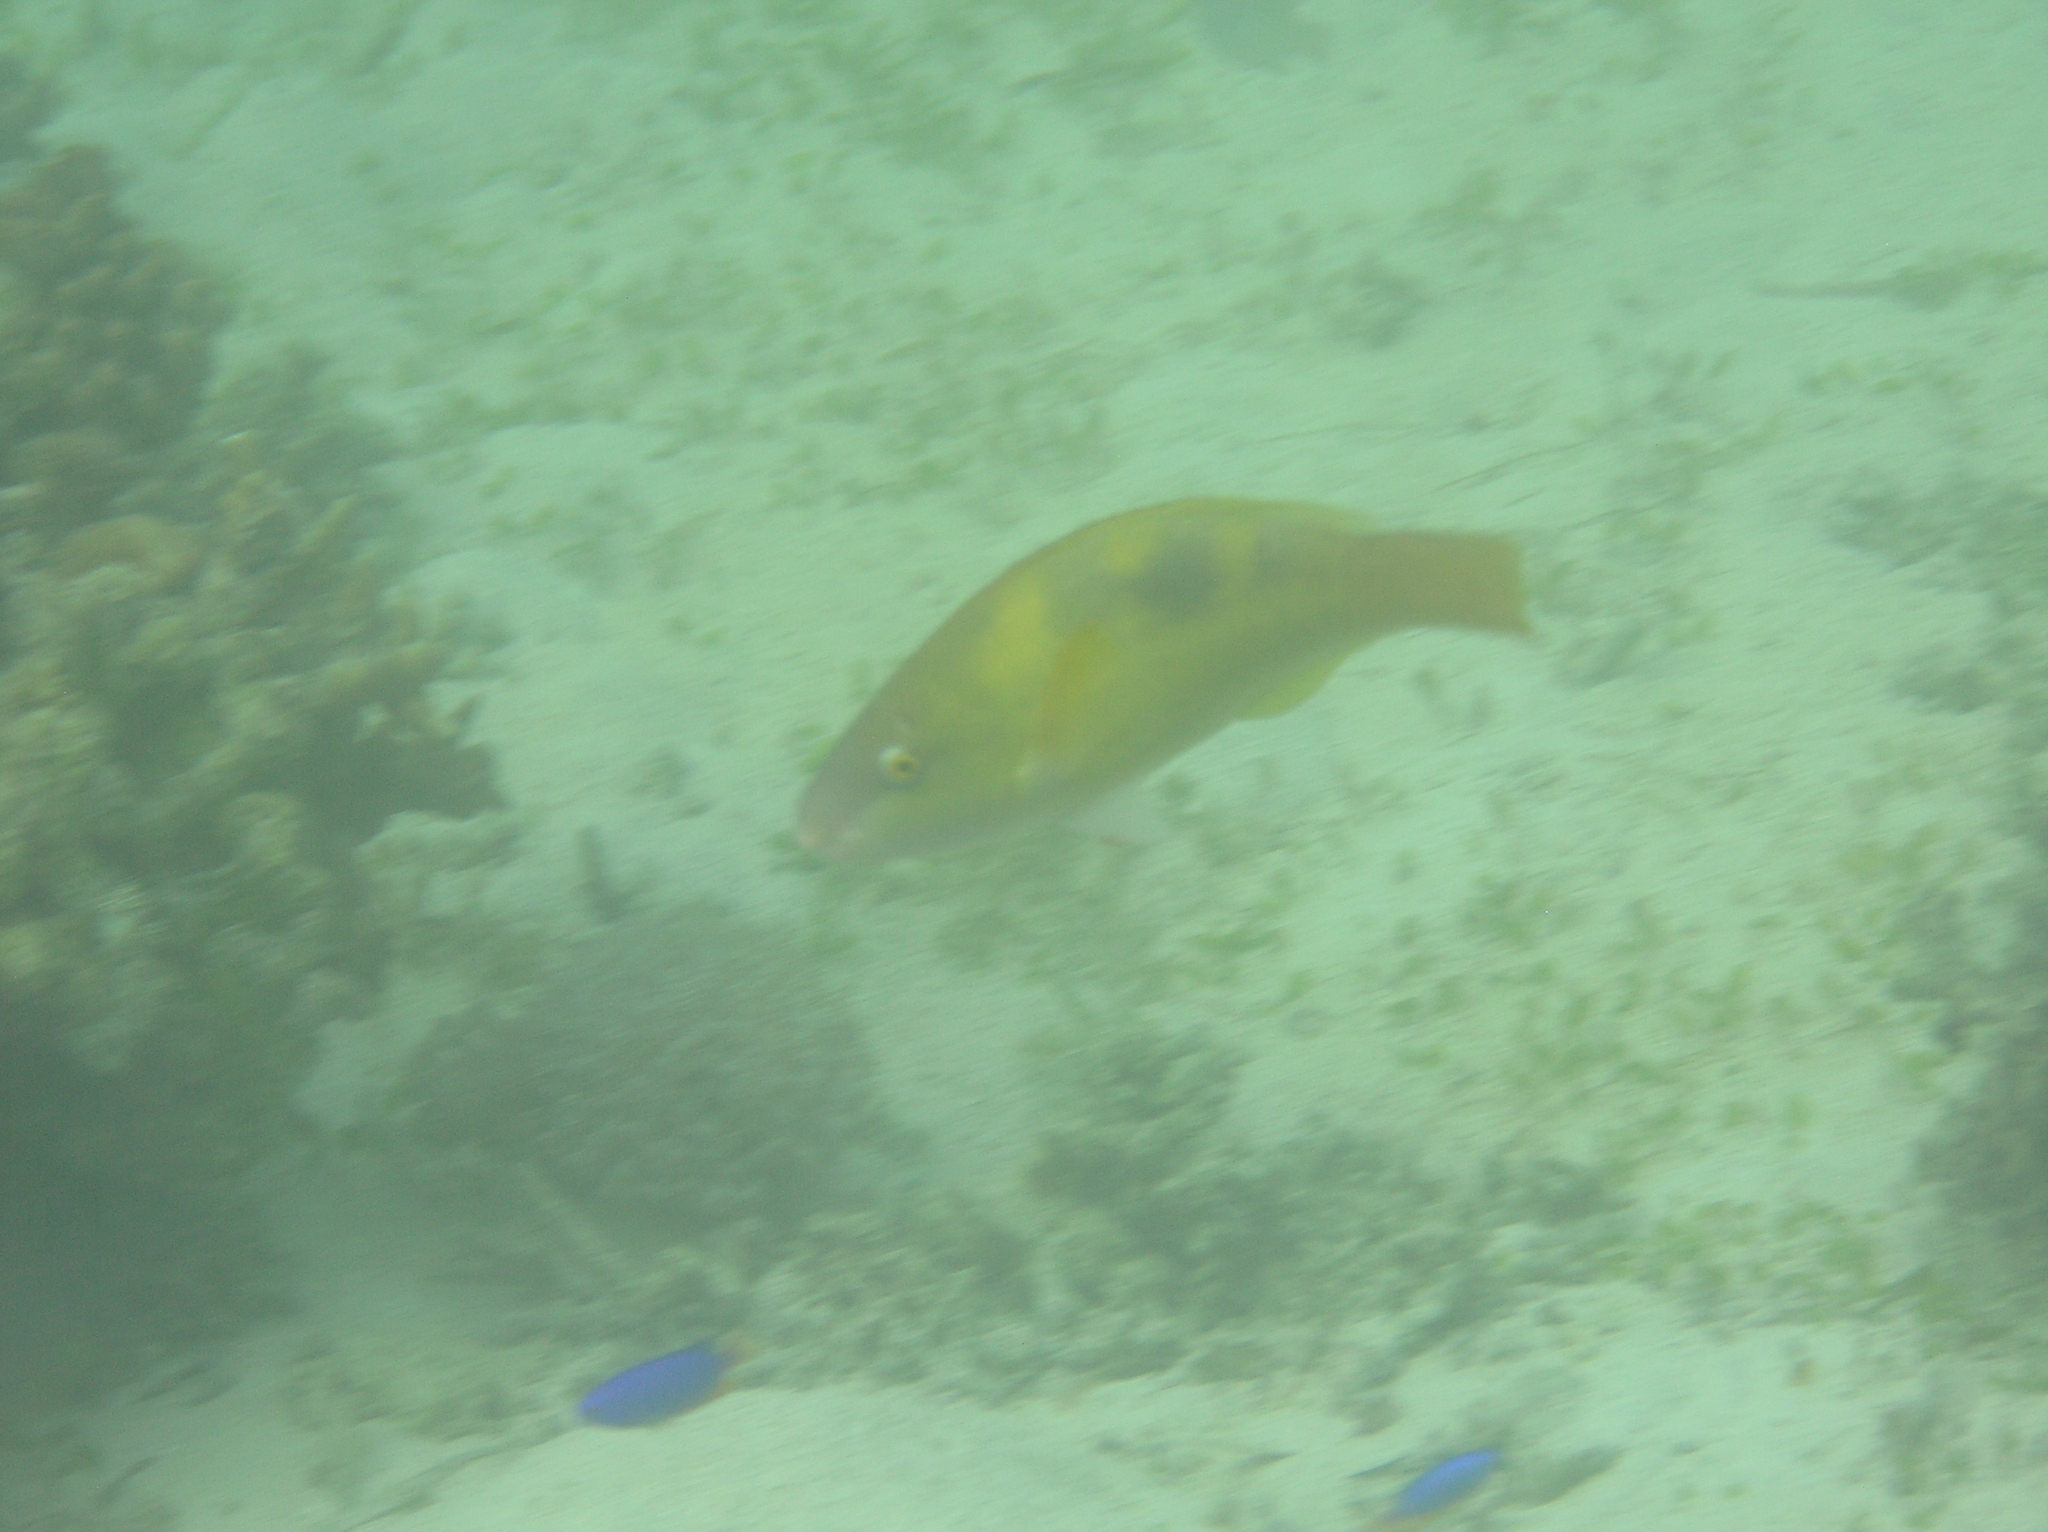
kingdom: Animalia
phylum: Chordata
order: Perciformes
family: Scaridae
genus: Scarus
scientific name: Scarus dimidiatus
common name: Yellowbarred parrotfish
